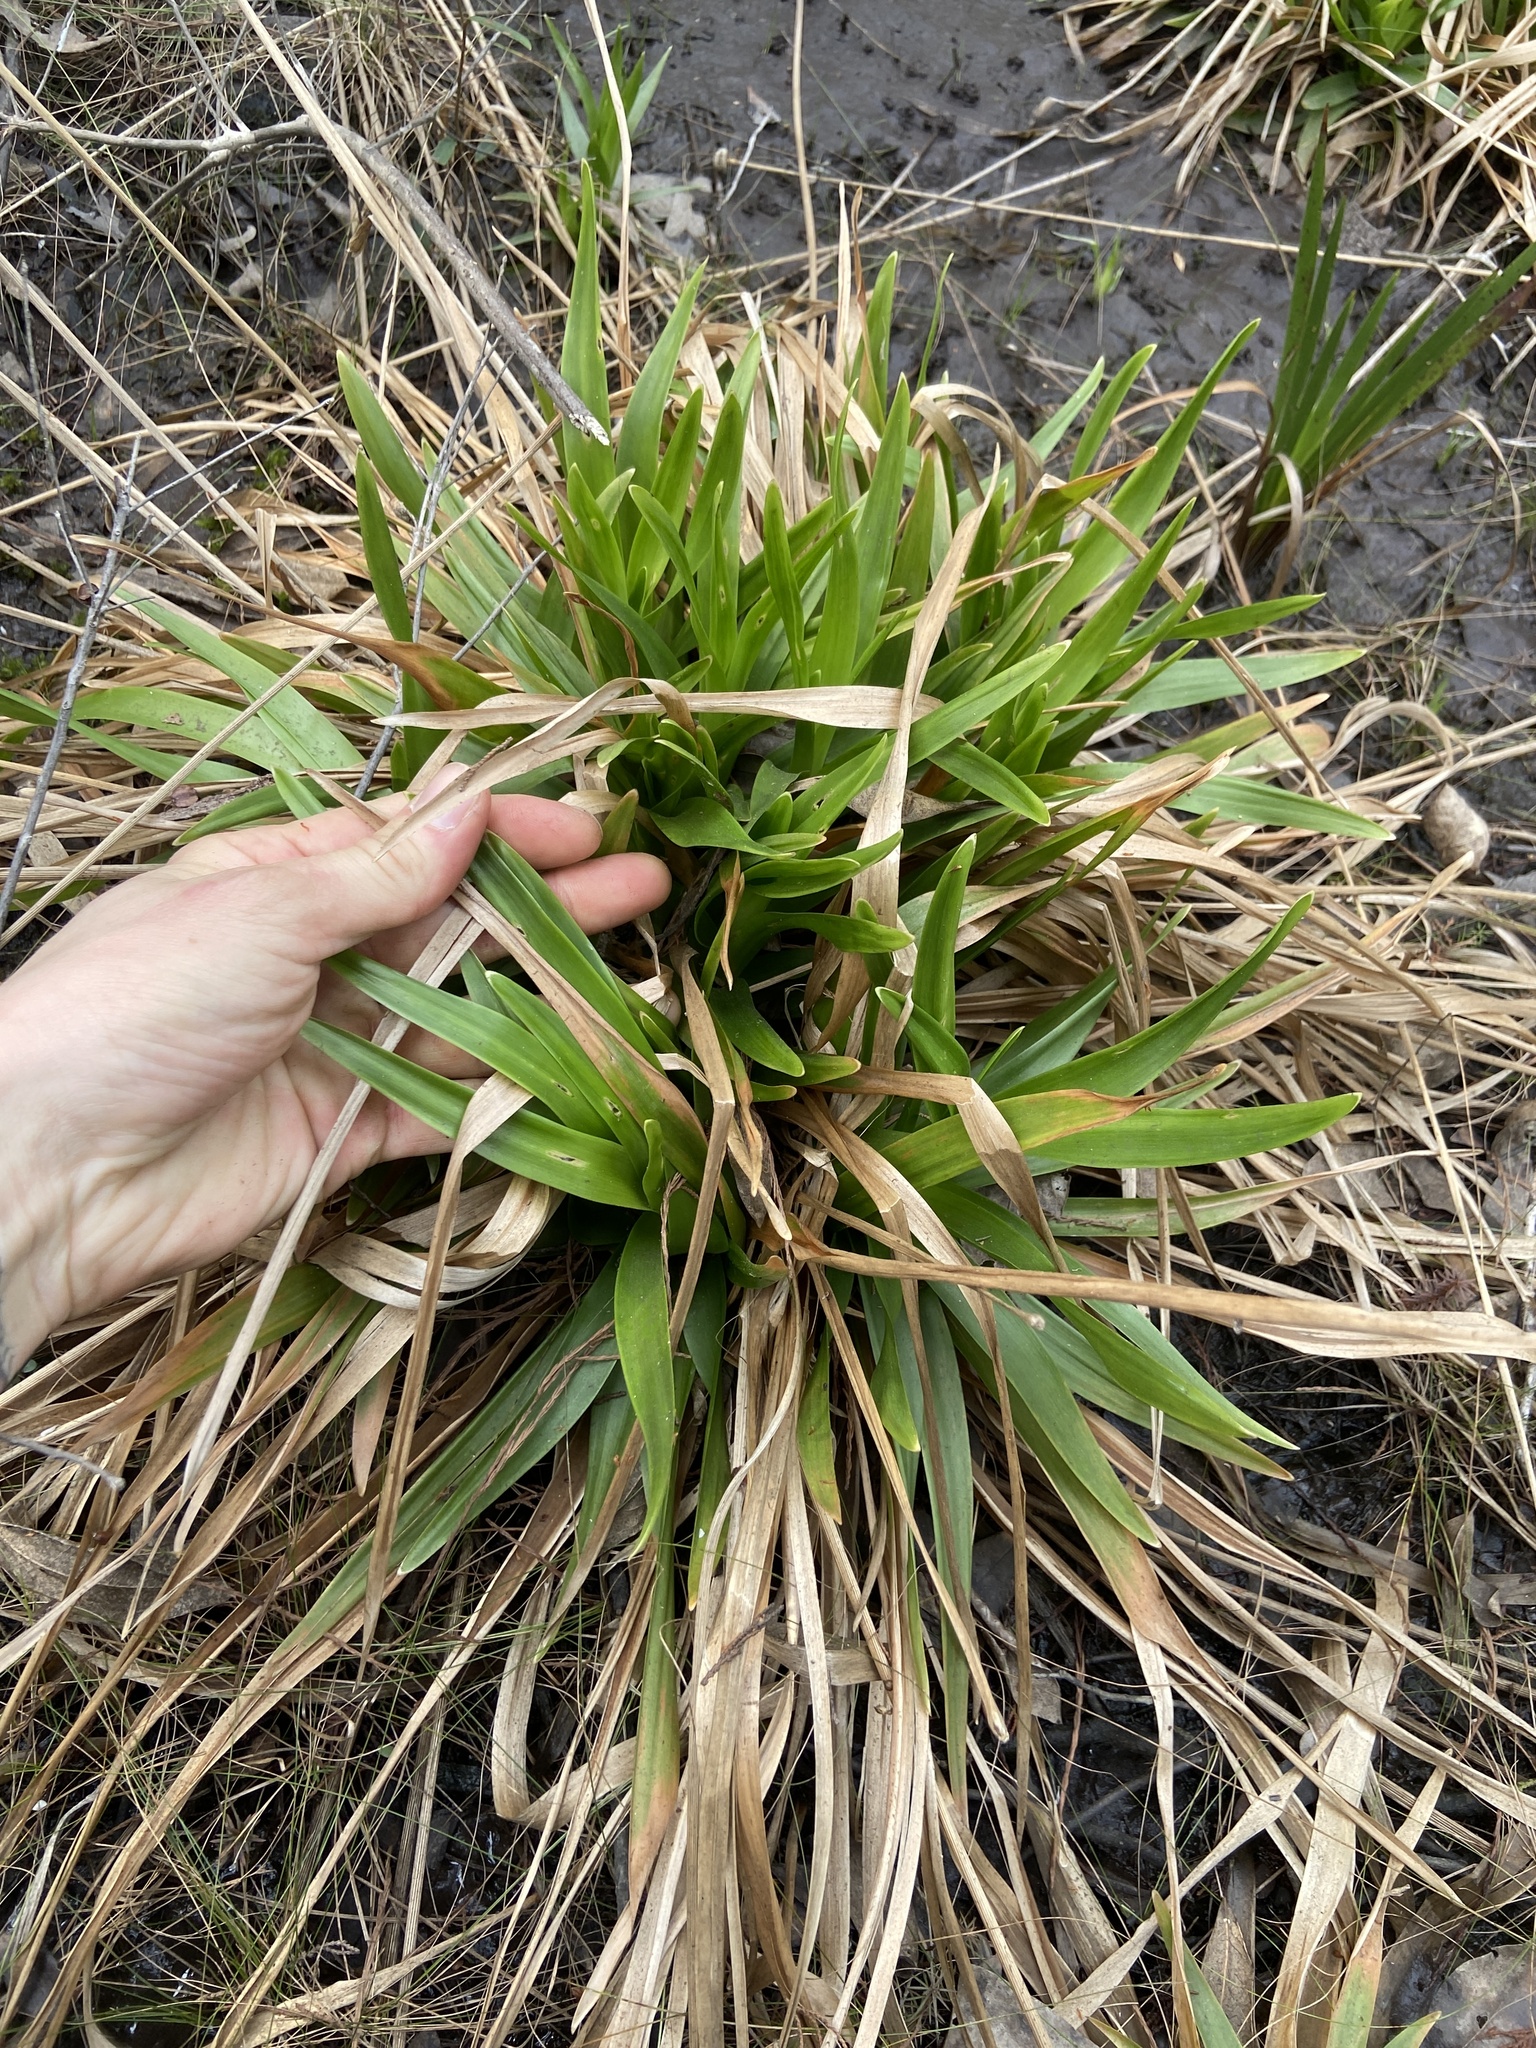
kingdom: Plantae
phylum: Tracheophyta
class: Liliopsida
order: Poales
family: Eriocaulaceae
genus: Eriocaulon
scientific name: Eriocaulon decangulare
